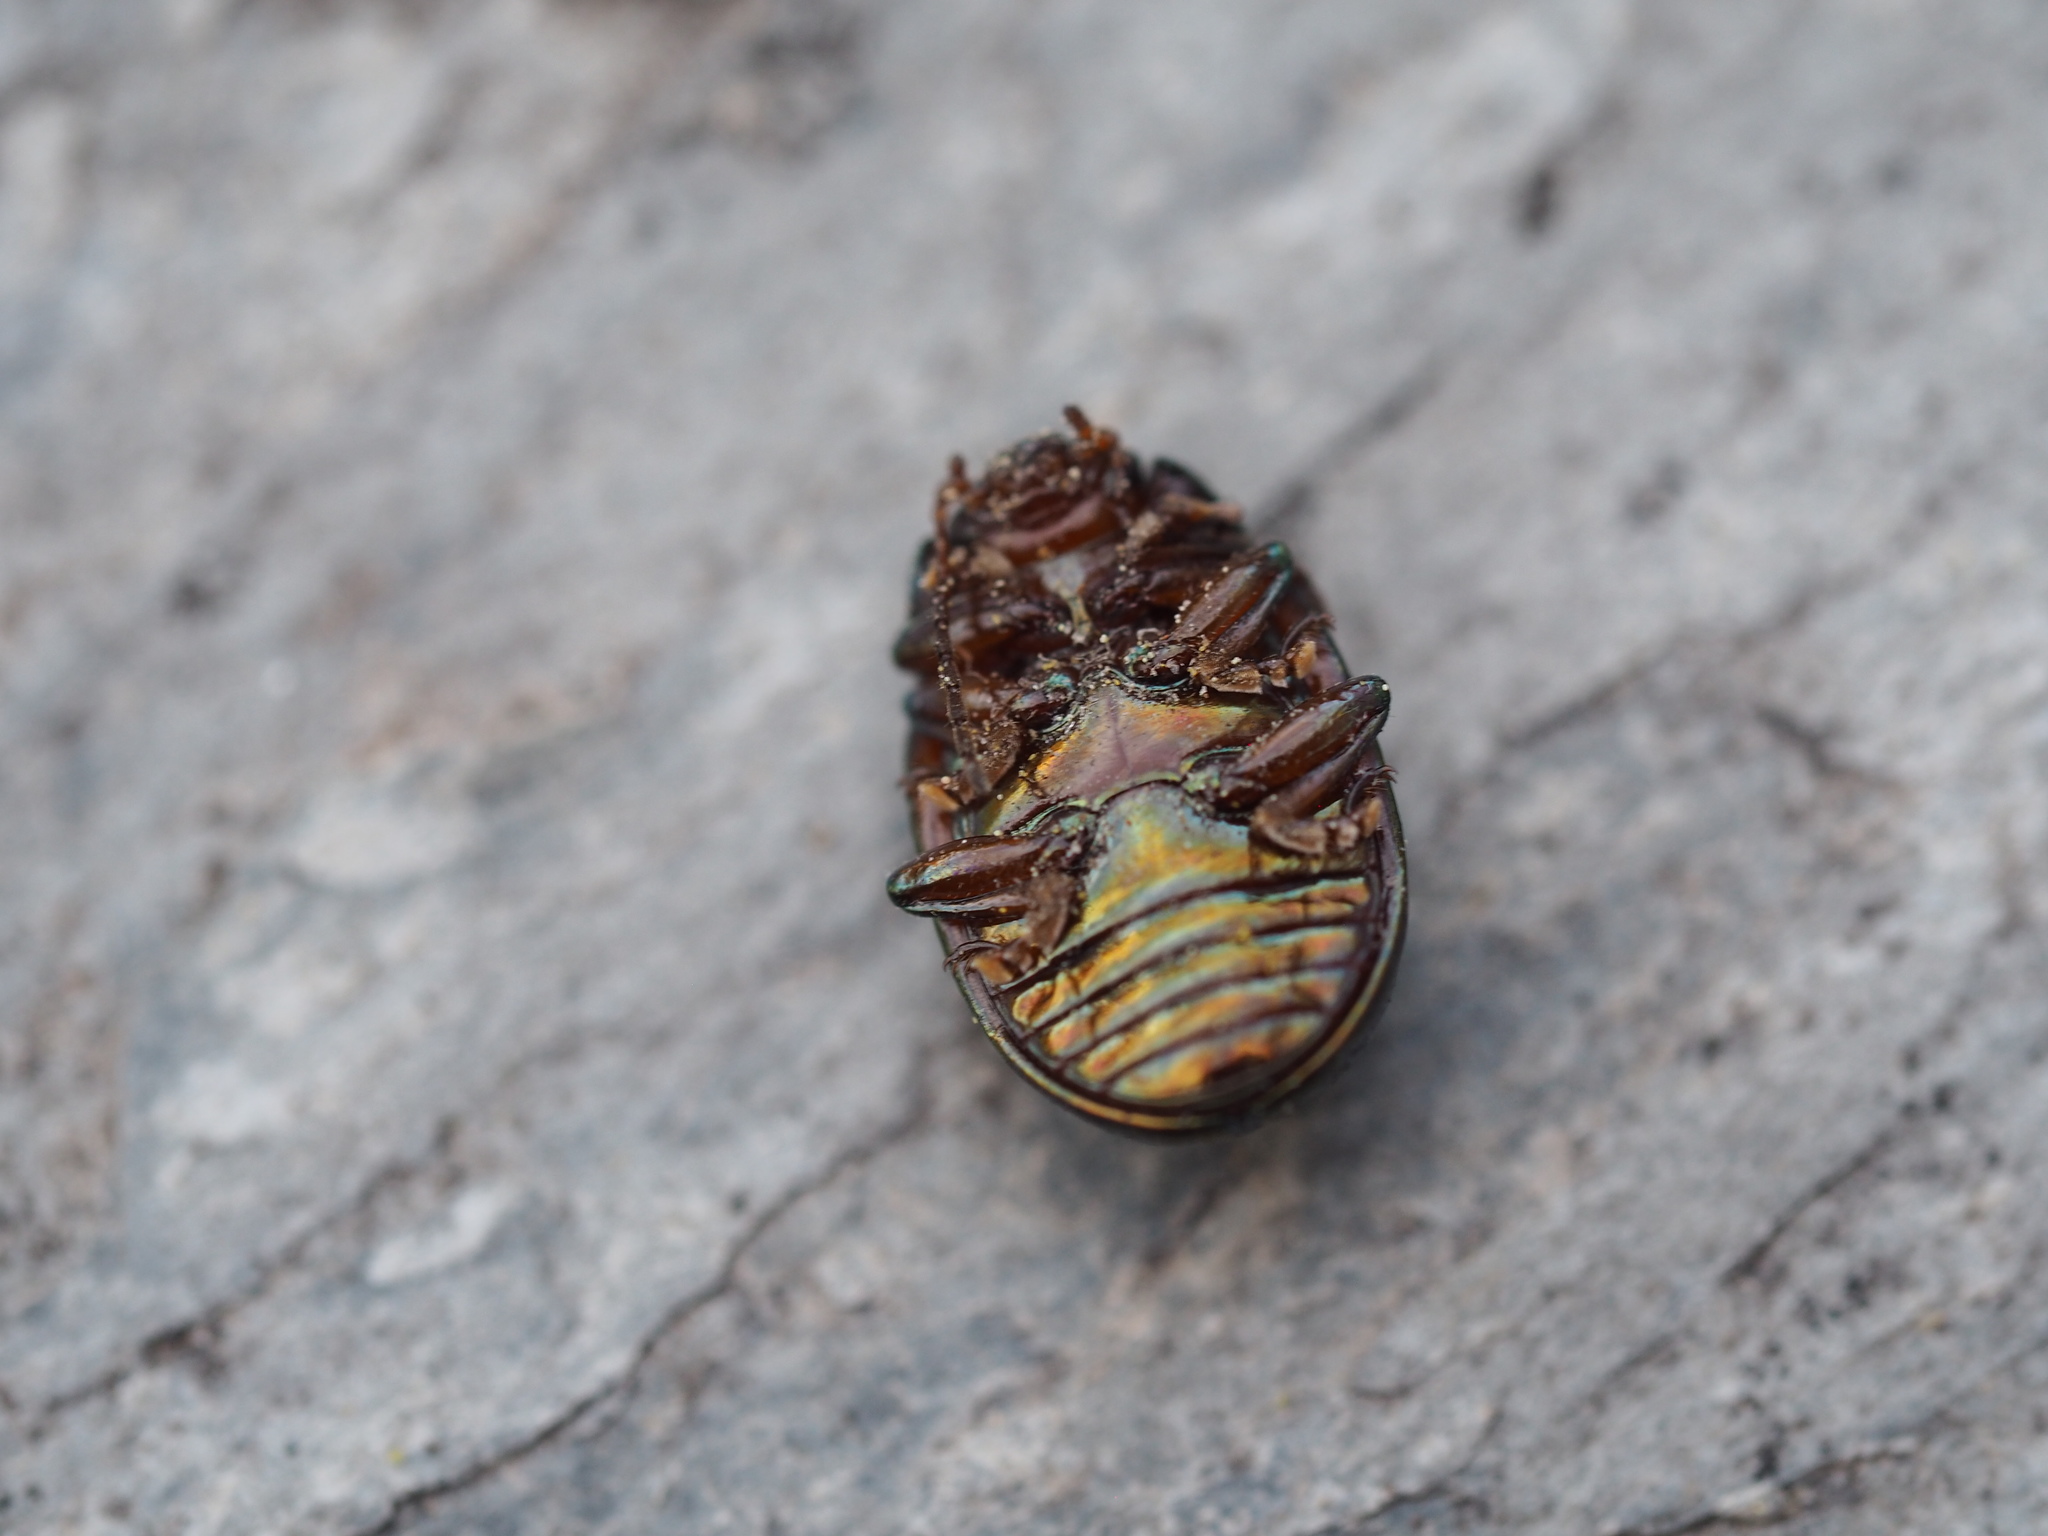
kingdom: Animalia
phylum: Arthropoda
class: Insecta
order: Coleoptera
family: Chrysomelidae
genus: Chrysolina
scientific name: Chrysolina americana
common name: Rosemary beetle
